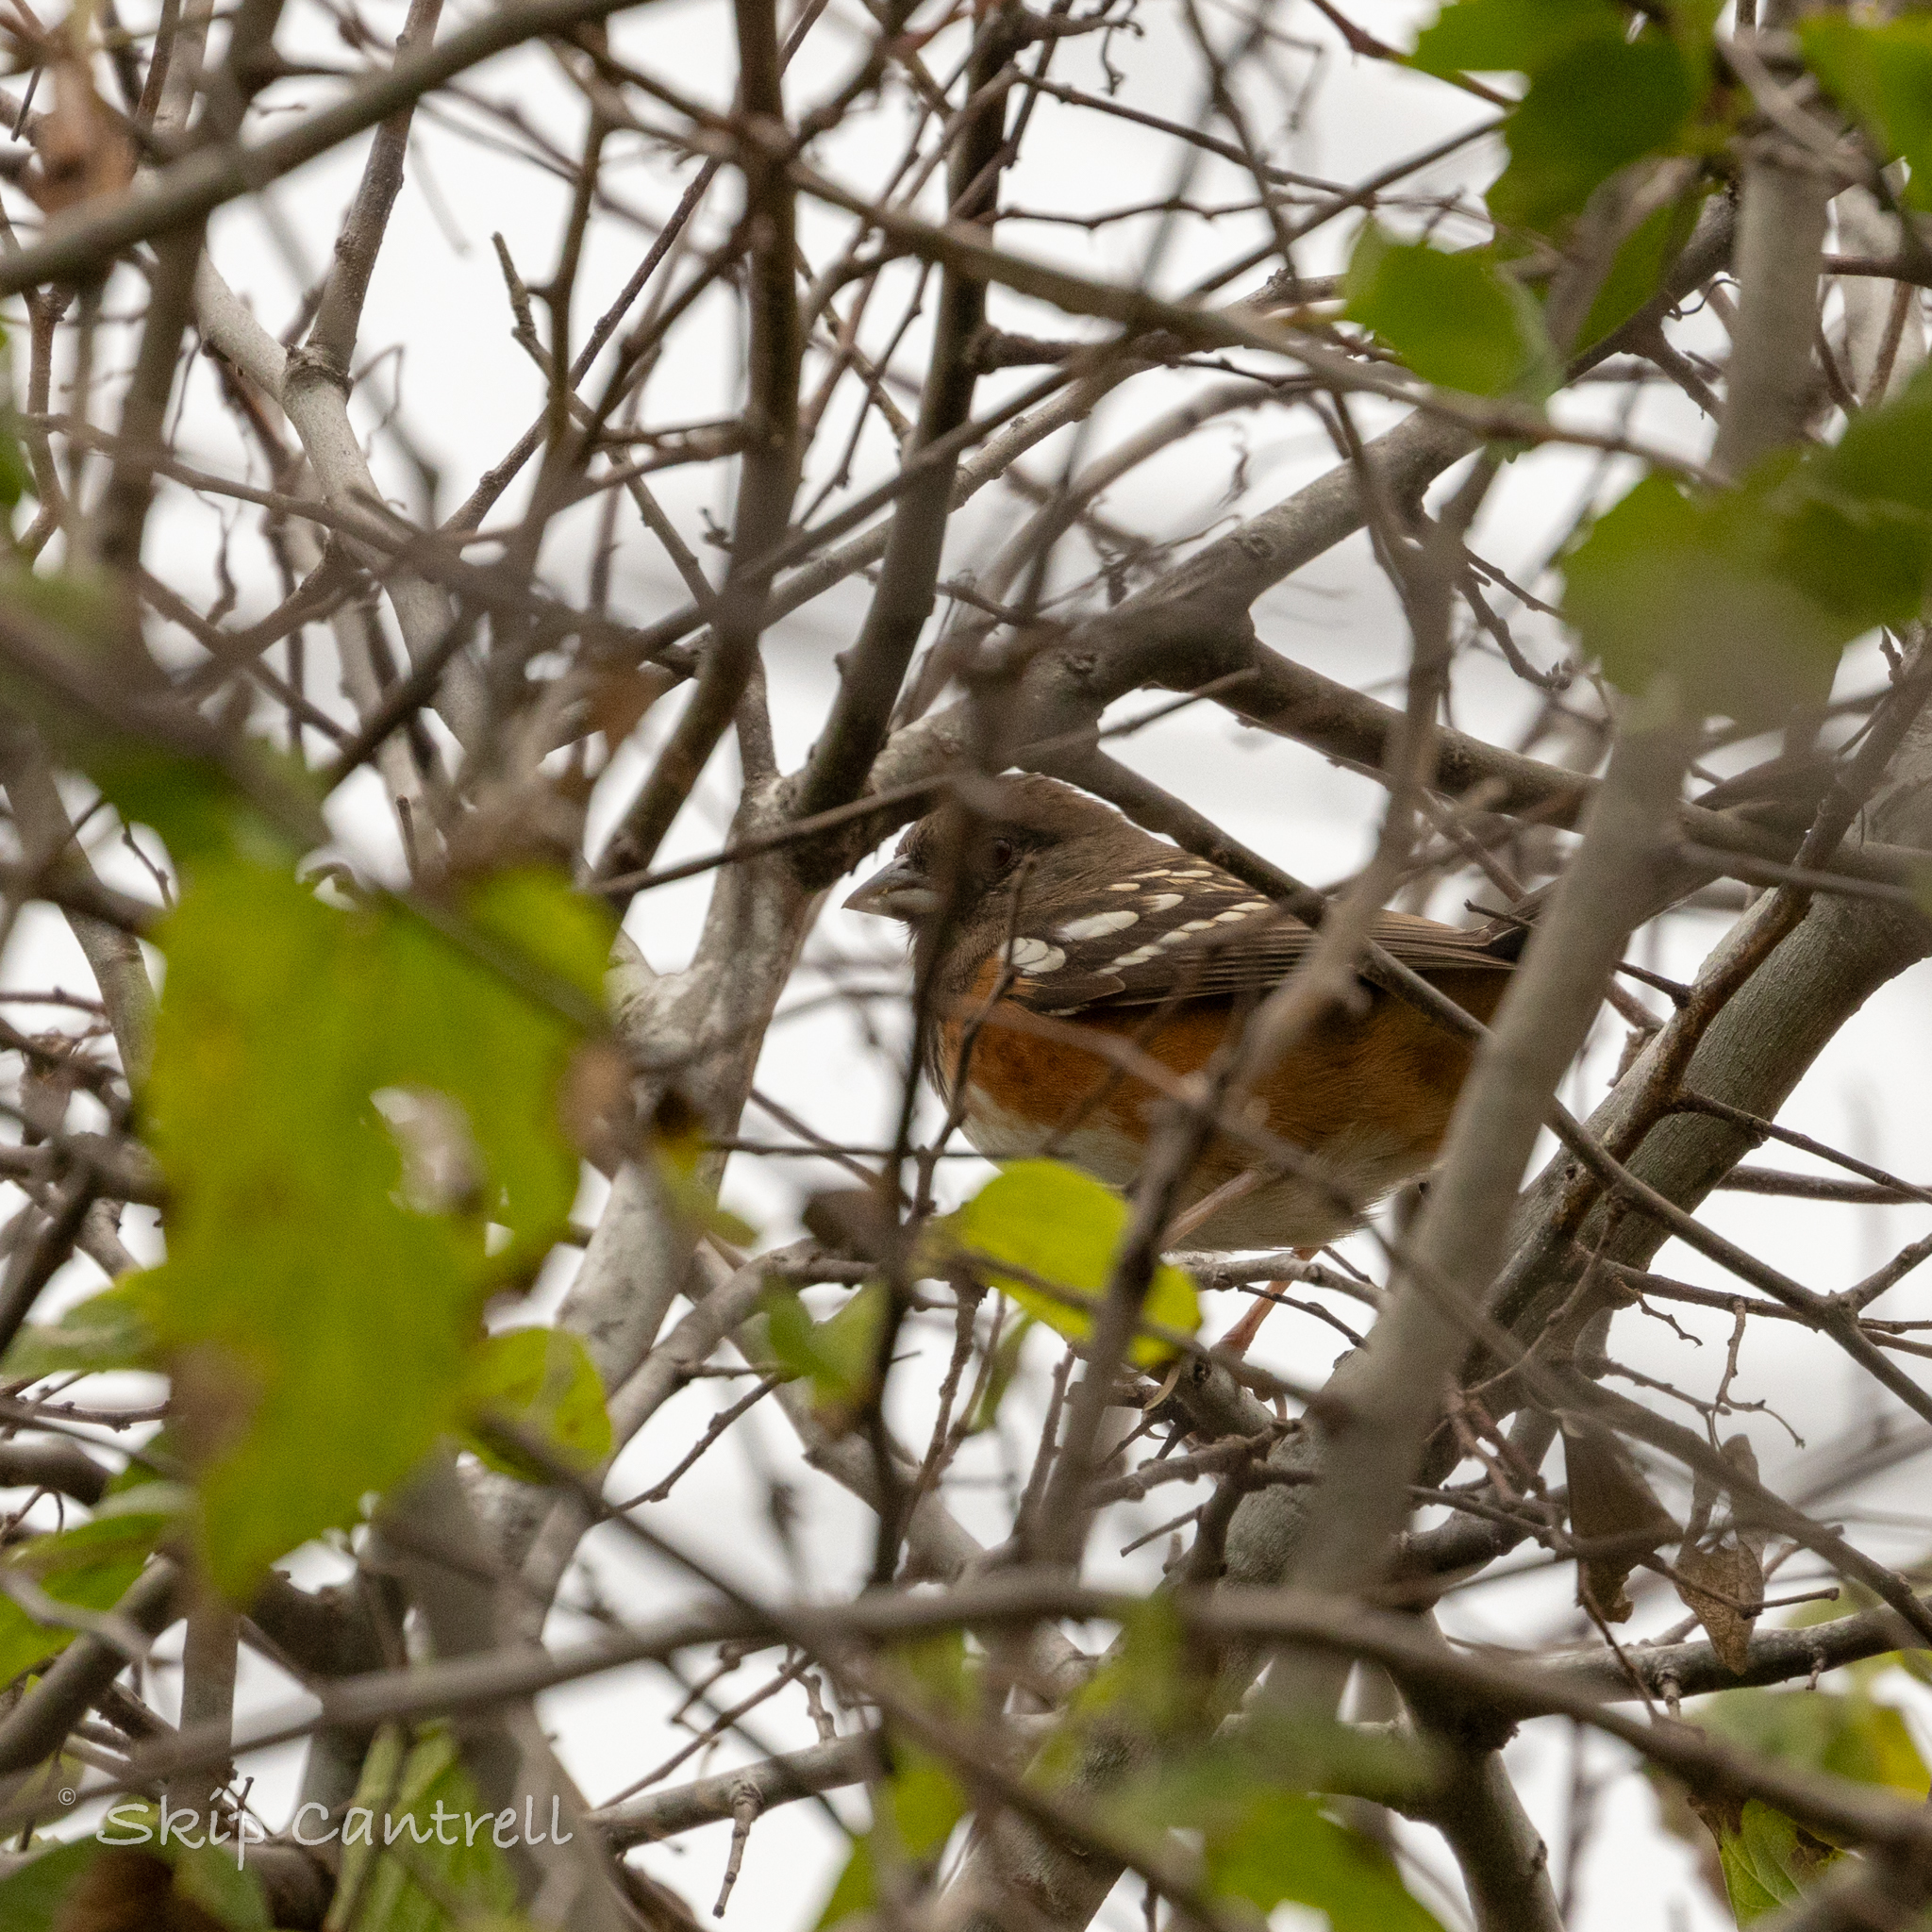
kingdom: Animalia
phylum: Chordata
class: Aves
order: Passeriformes
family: Passerellidae
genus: Pipilo
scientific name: Pipilo maculatus
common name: Spotted towhee
